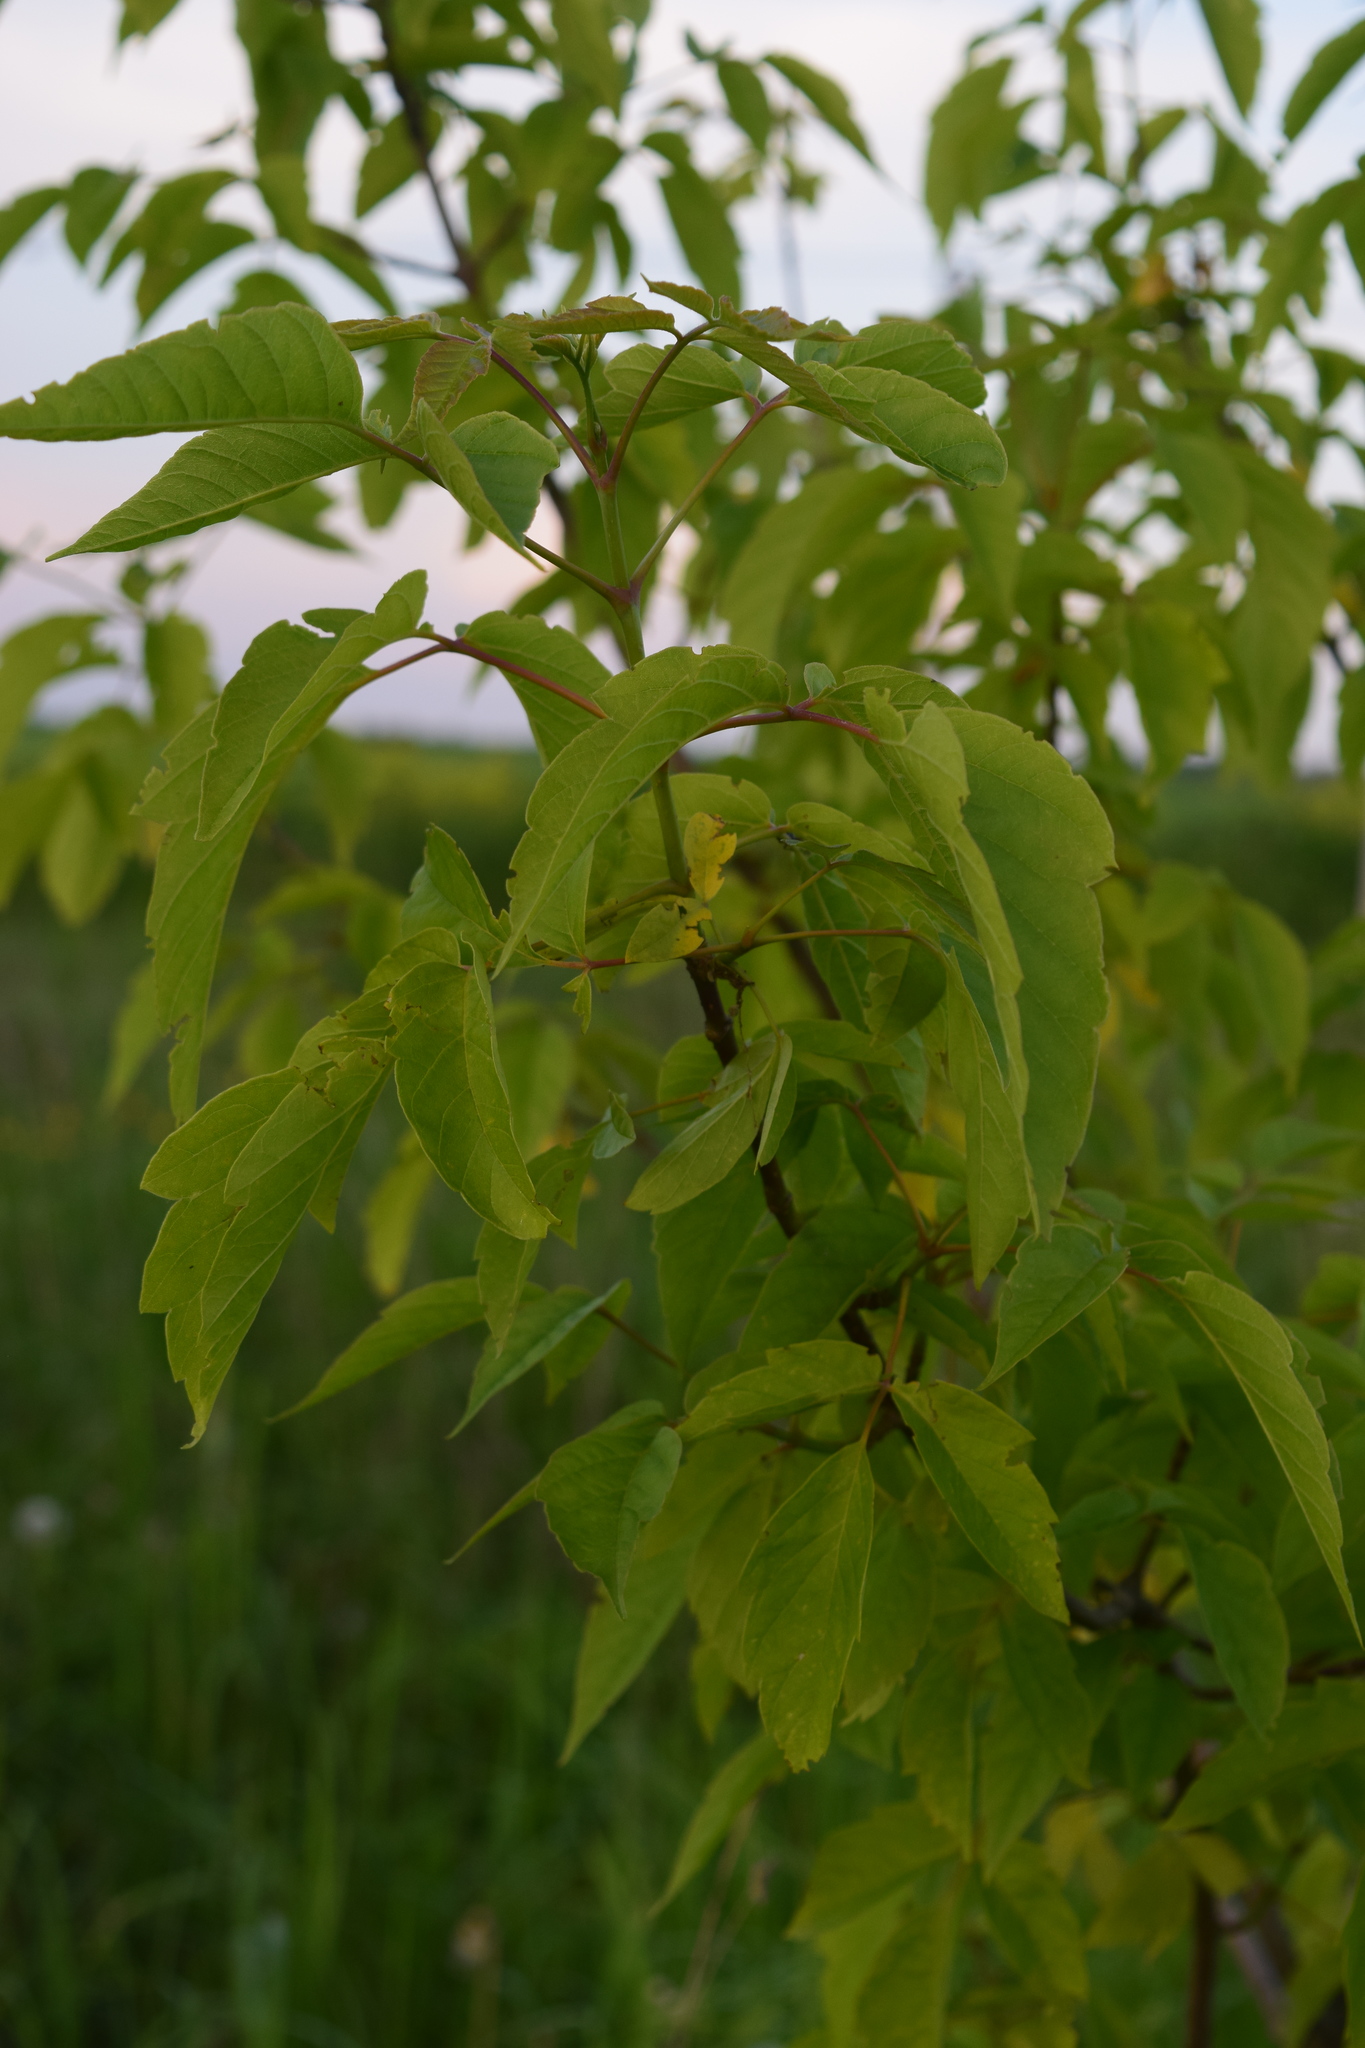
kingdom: Plantae
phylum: Tracheophyta
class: Magnoliopsida
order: Sapindales
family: Sapindaceae
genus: Acer
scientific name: Acer negundo
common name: Ashleaf maple
